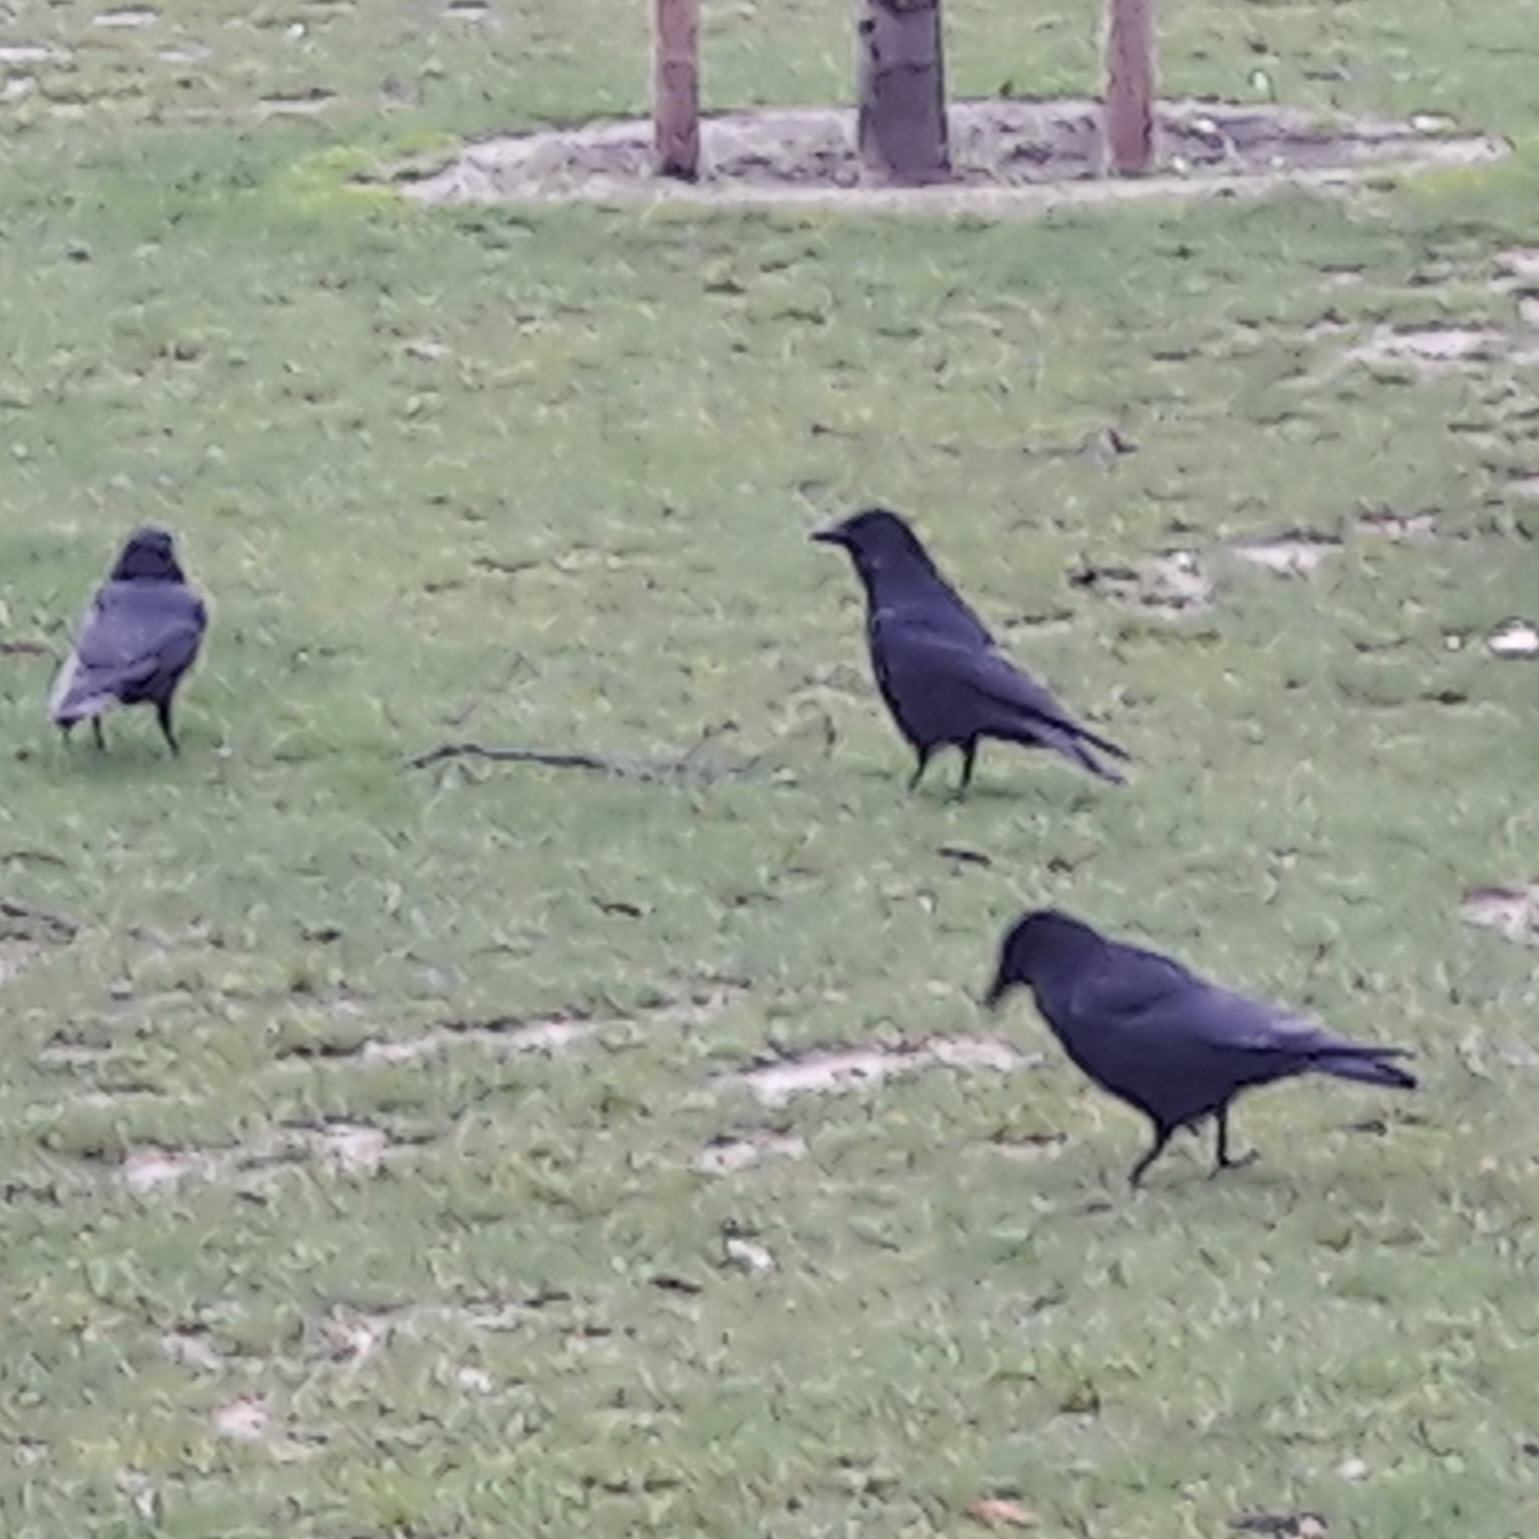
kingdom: Animalia
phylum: Chordata
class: Aves
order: Passeriformes
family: Corvidae
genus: Corvus
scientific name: Corvus corone
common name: Carrion crow
